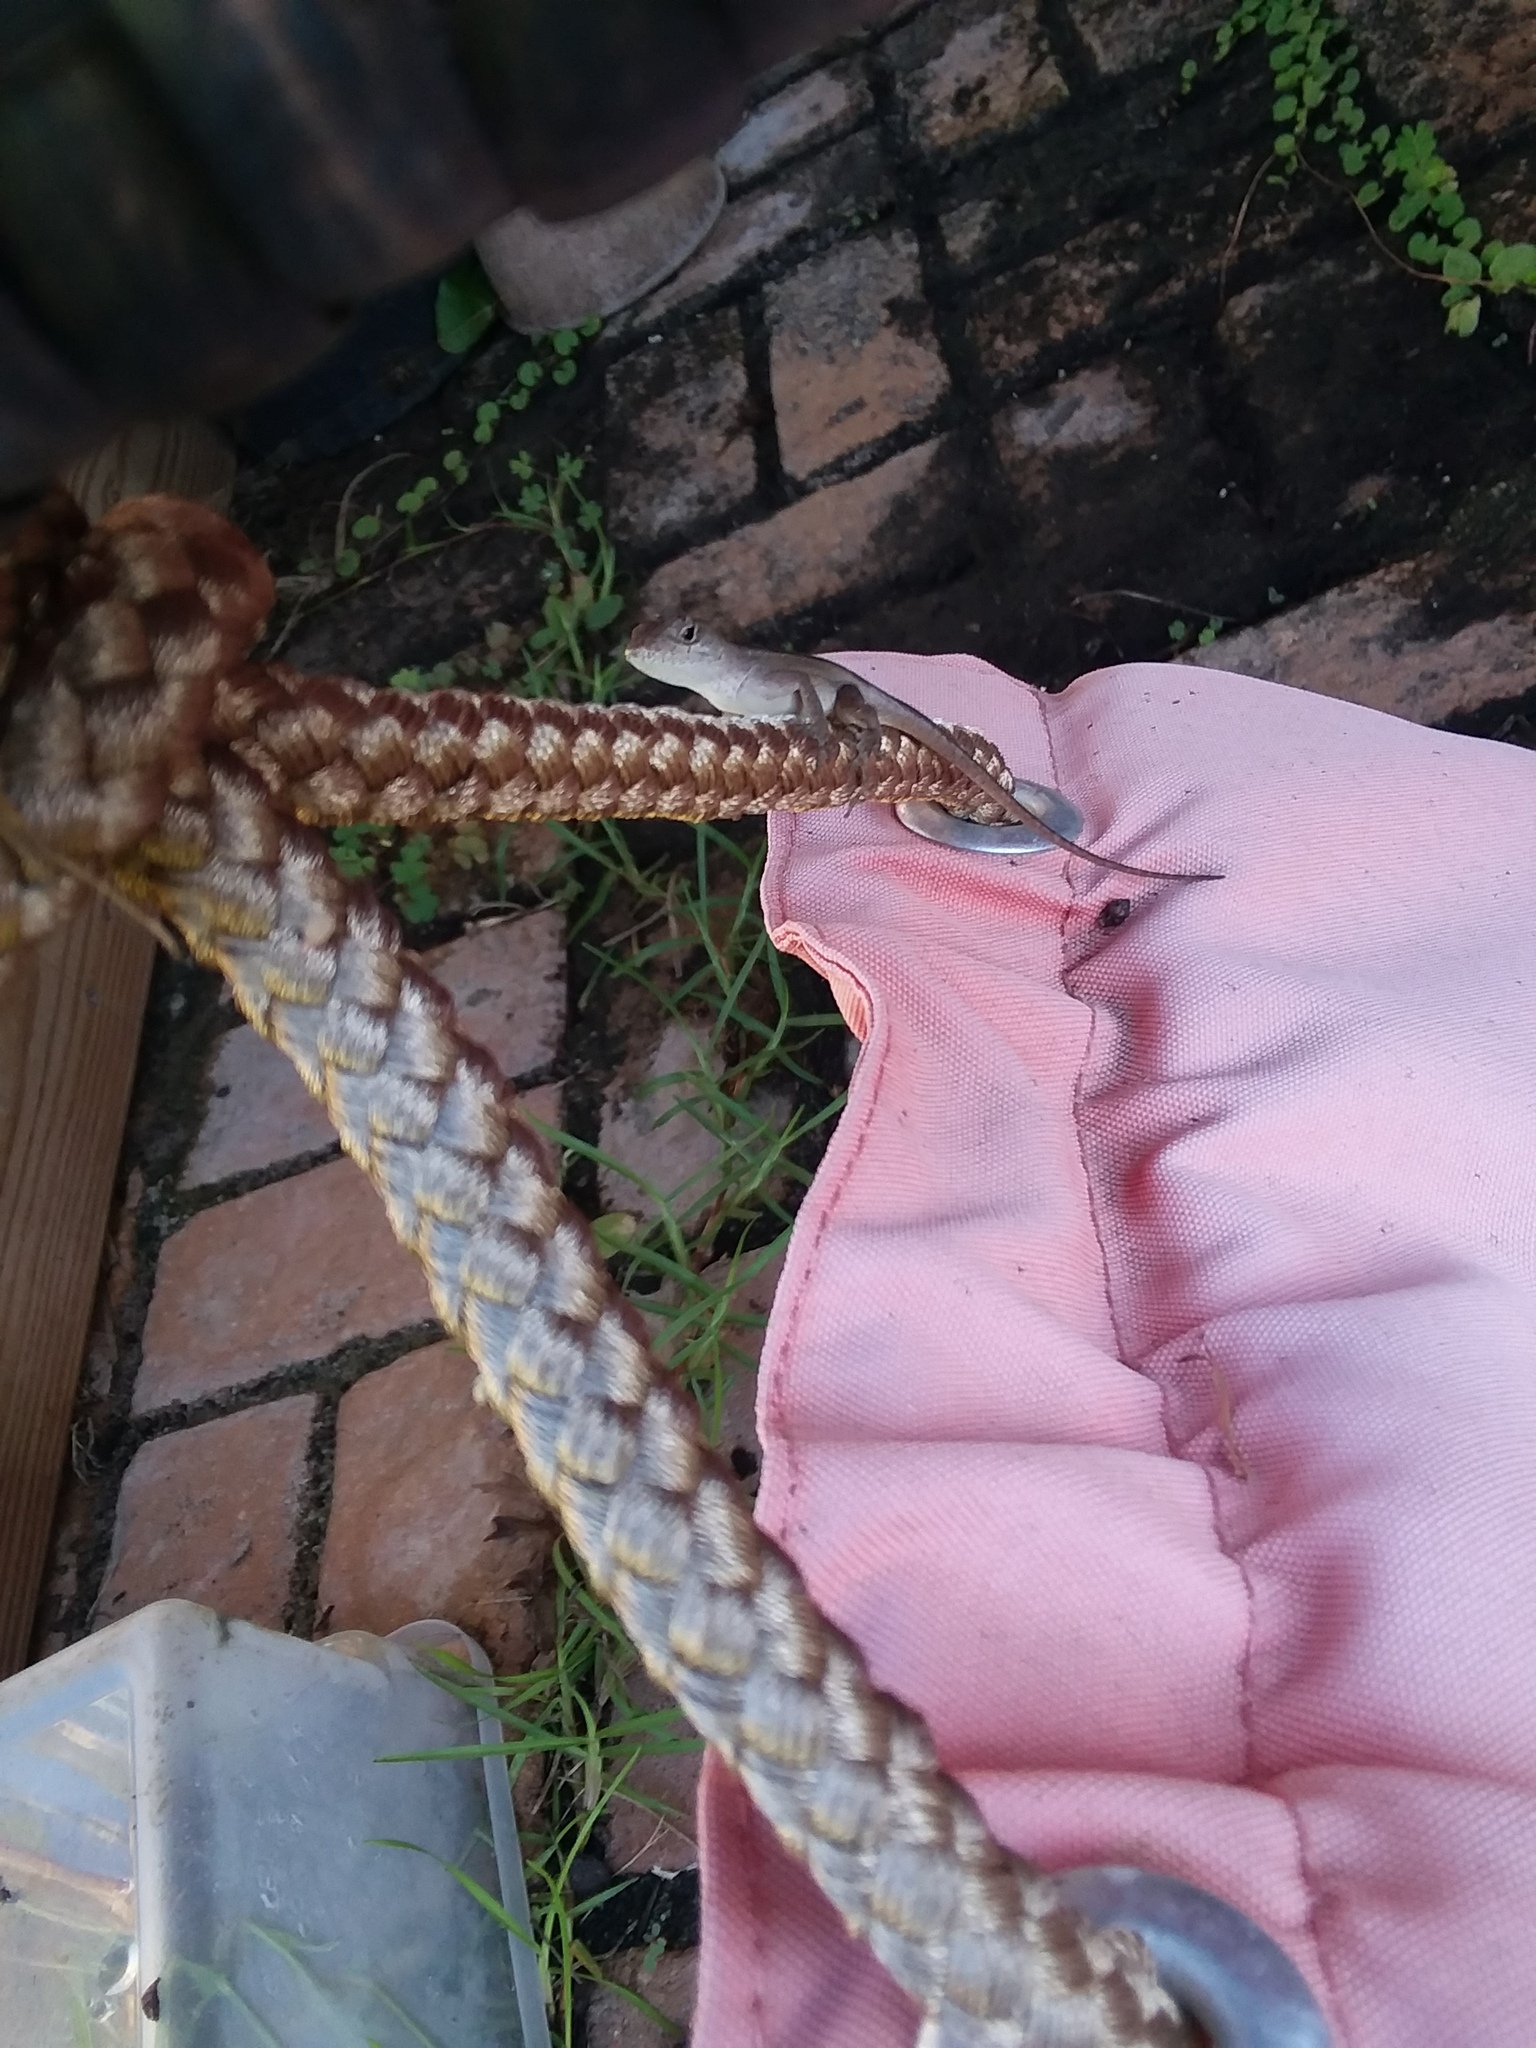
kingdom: Animalia
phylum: Chordata
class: Squamata
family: Dactyloidae
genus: Anolis
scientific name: Anolis sagrei
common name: Brown anole
